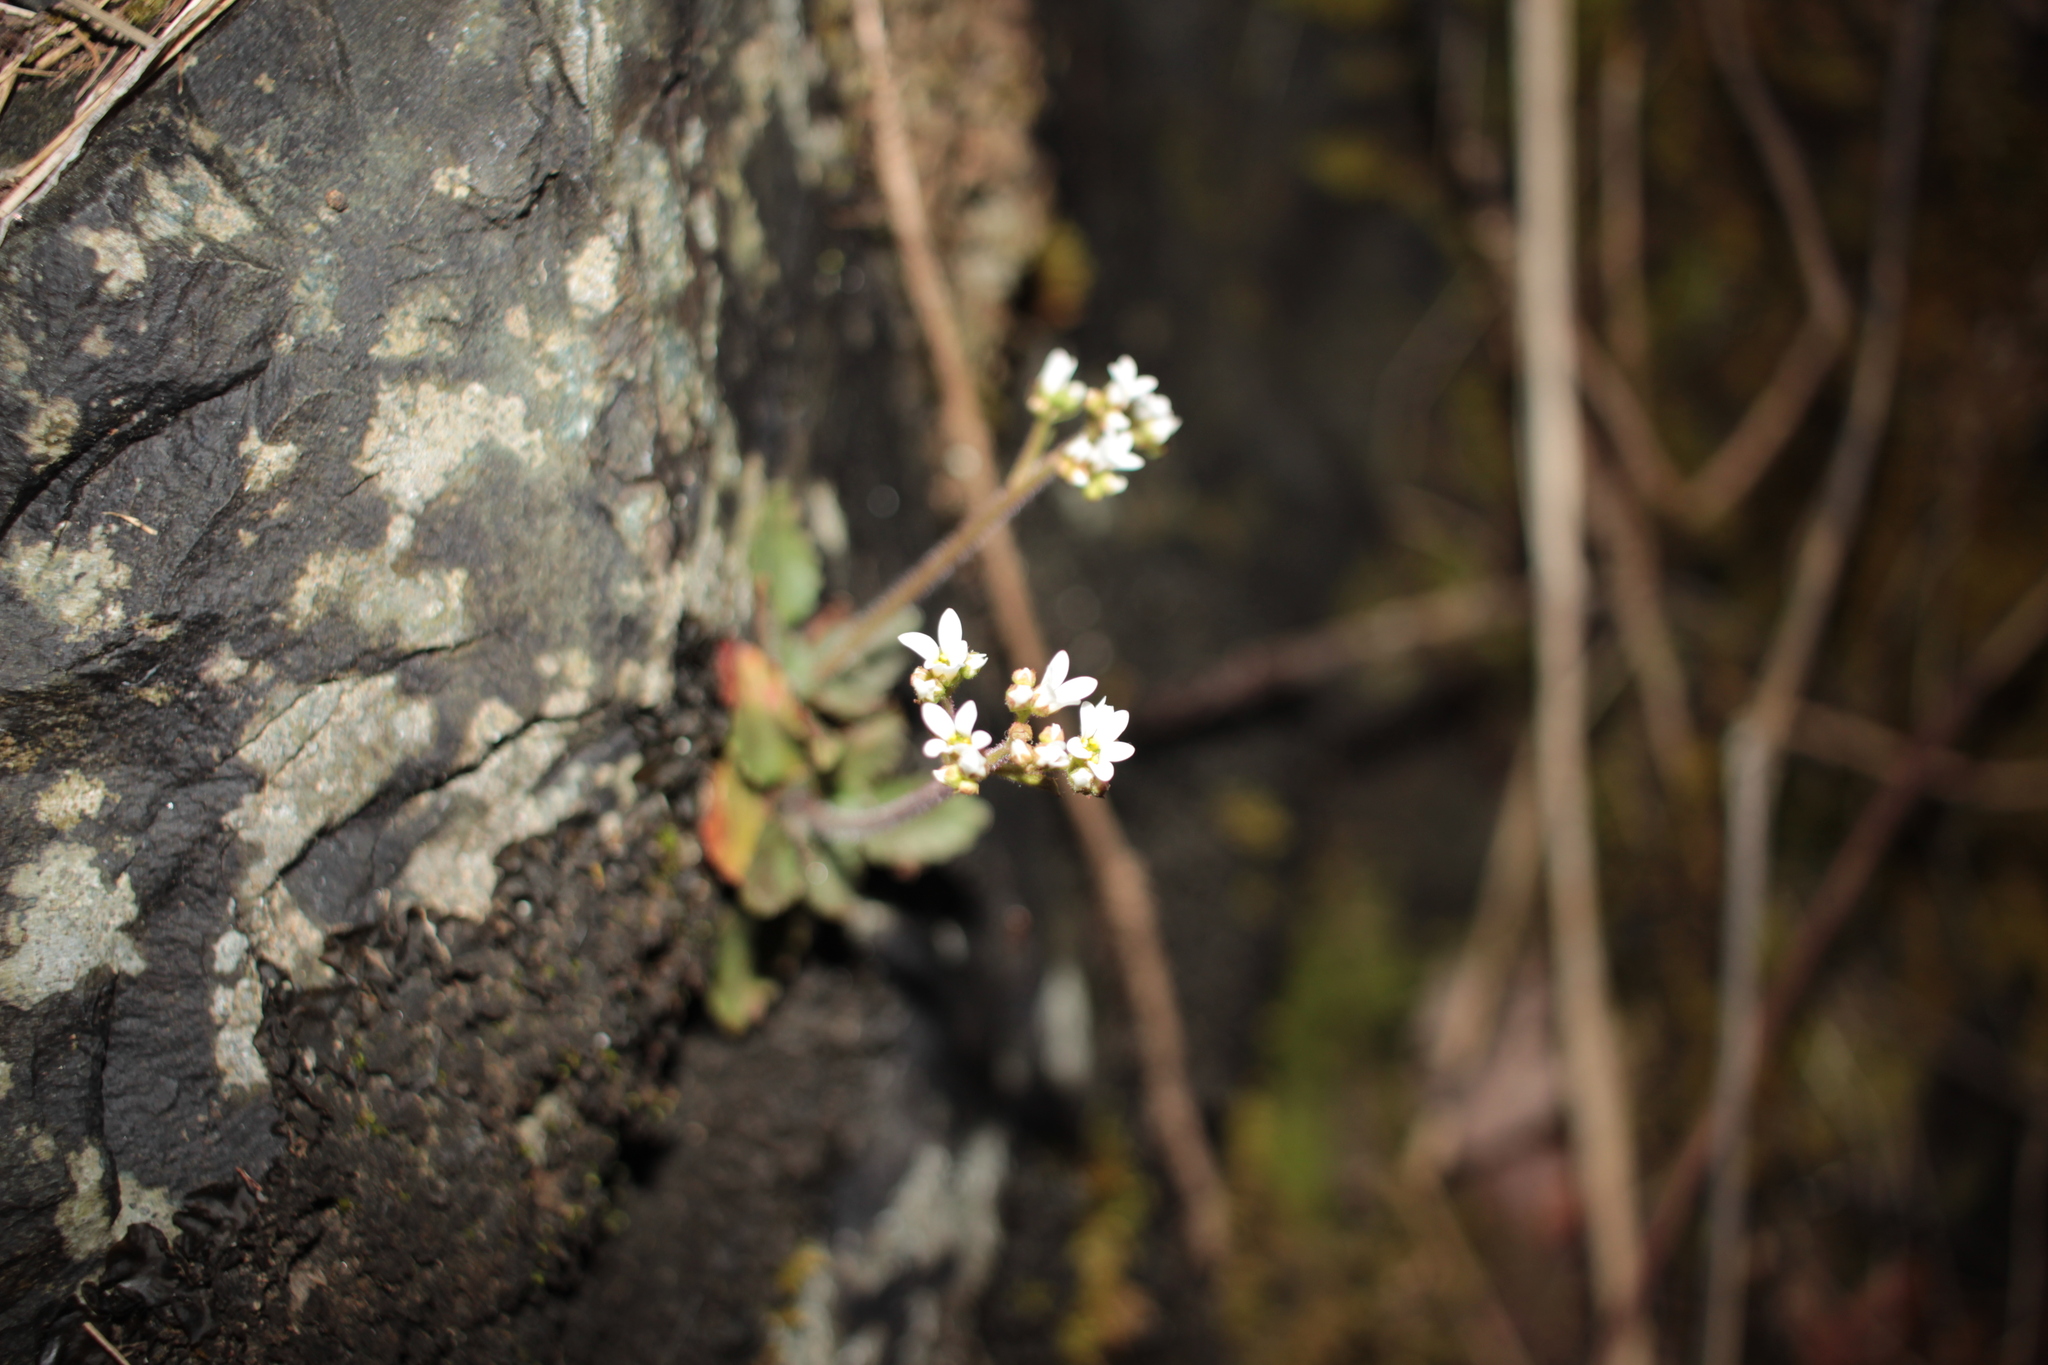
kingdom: Plantae
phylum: Tracheophyta
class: Magnoliopsida
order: Saxifragales
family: Saxifragaceae
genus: Micranthes
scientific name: Micranthes virginiensis
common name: Early saxifrage
